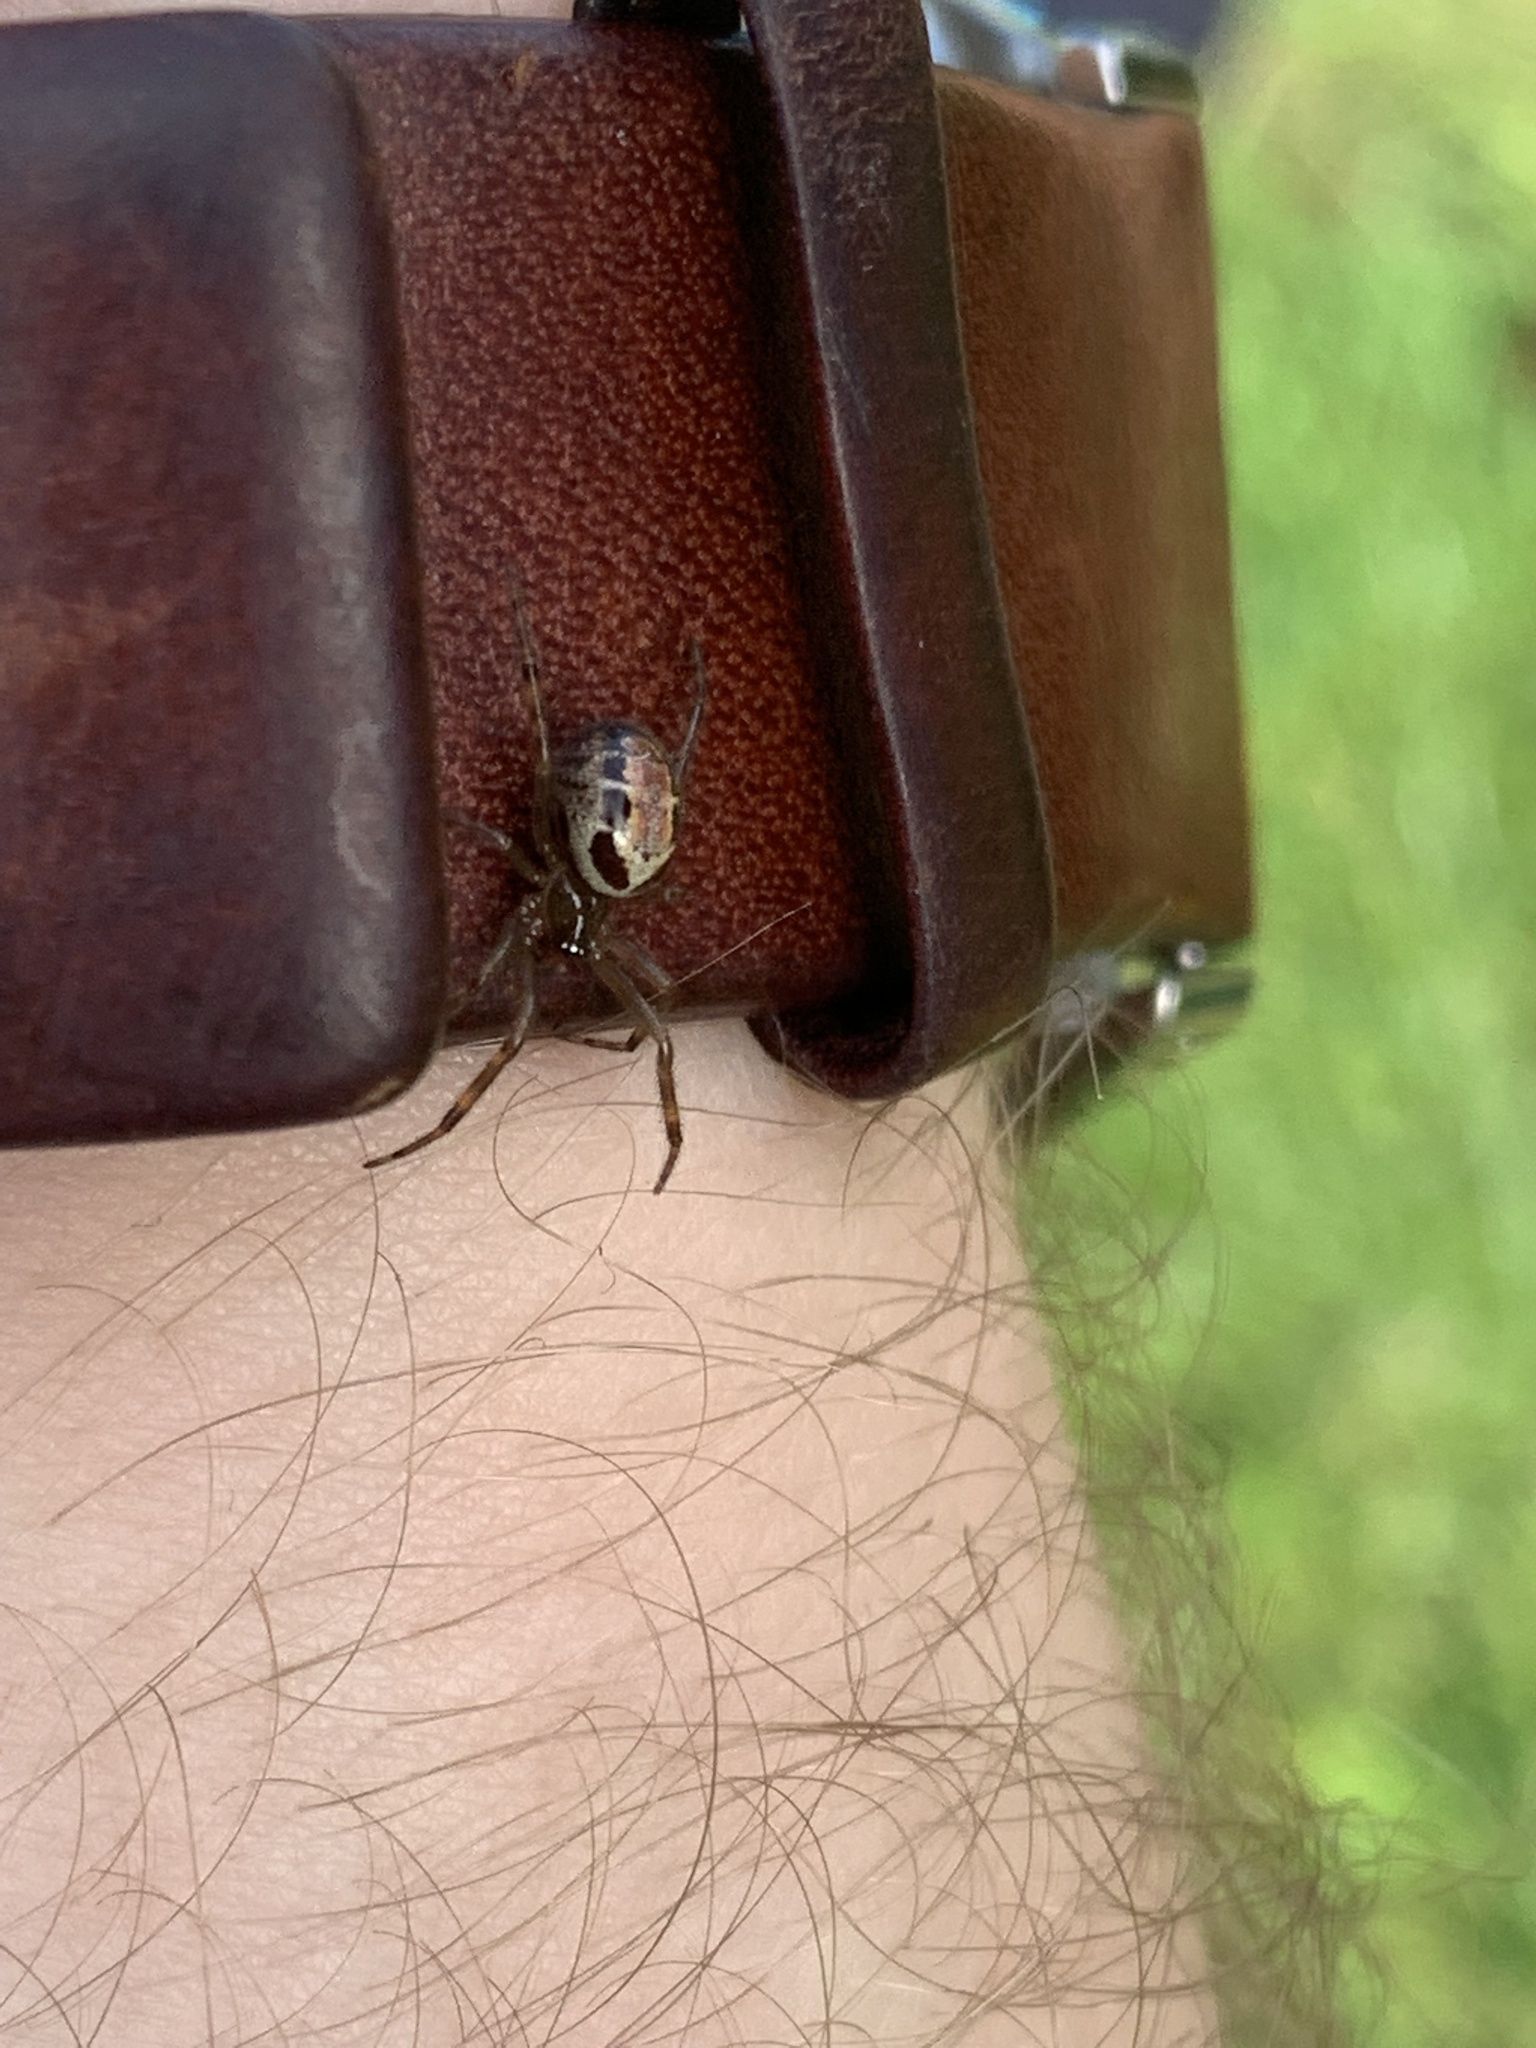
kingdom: Animalia
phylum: Arthropoda
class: Arachnida
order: Araneae
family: Theridiidae
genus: Steatoda
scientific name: Steatoda nobilis
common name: Cobweb weaver
